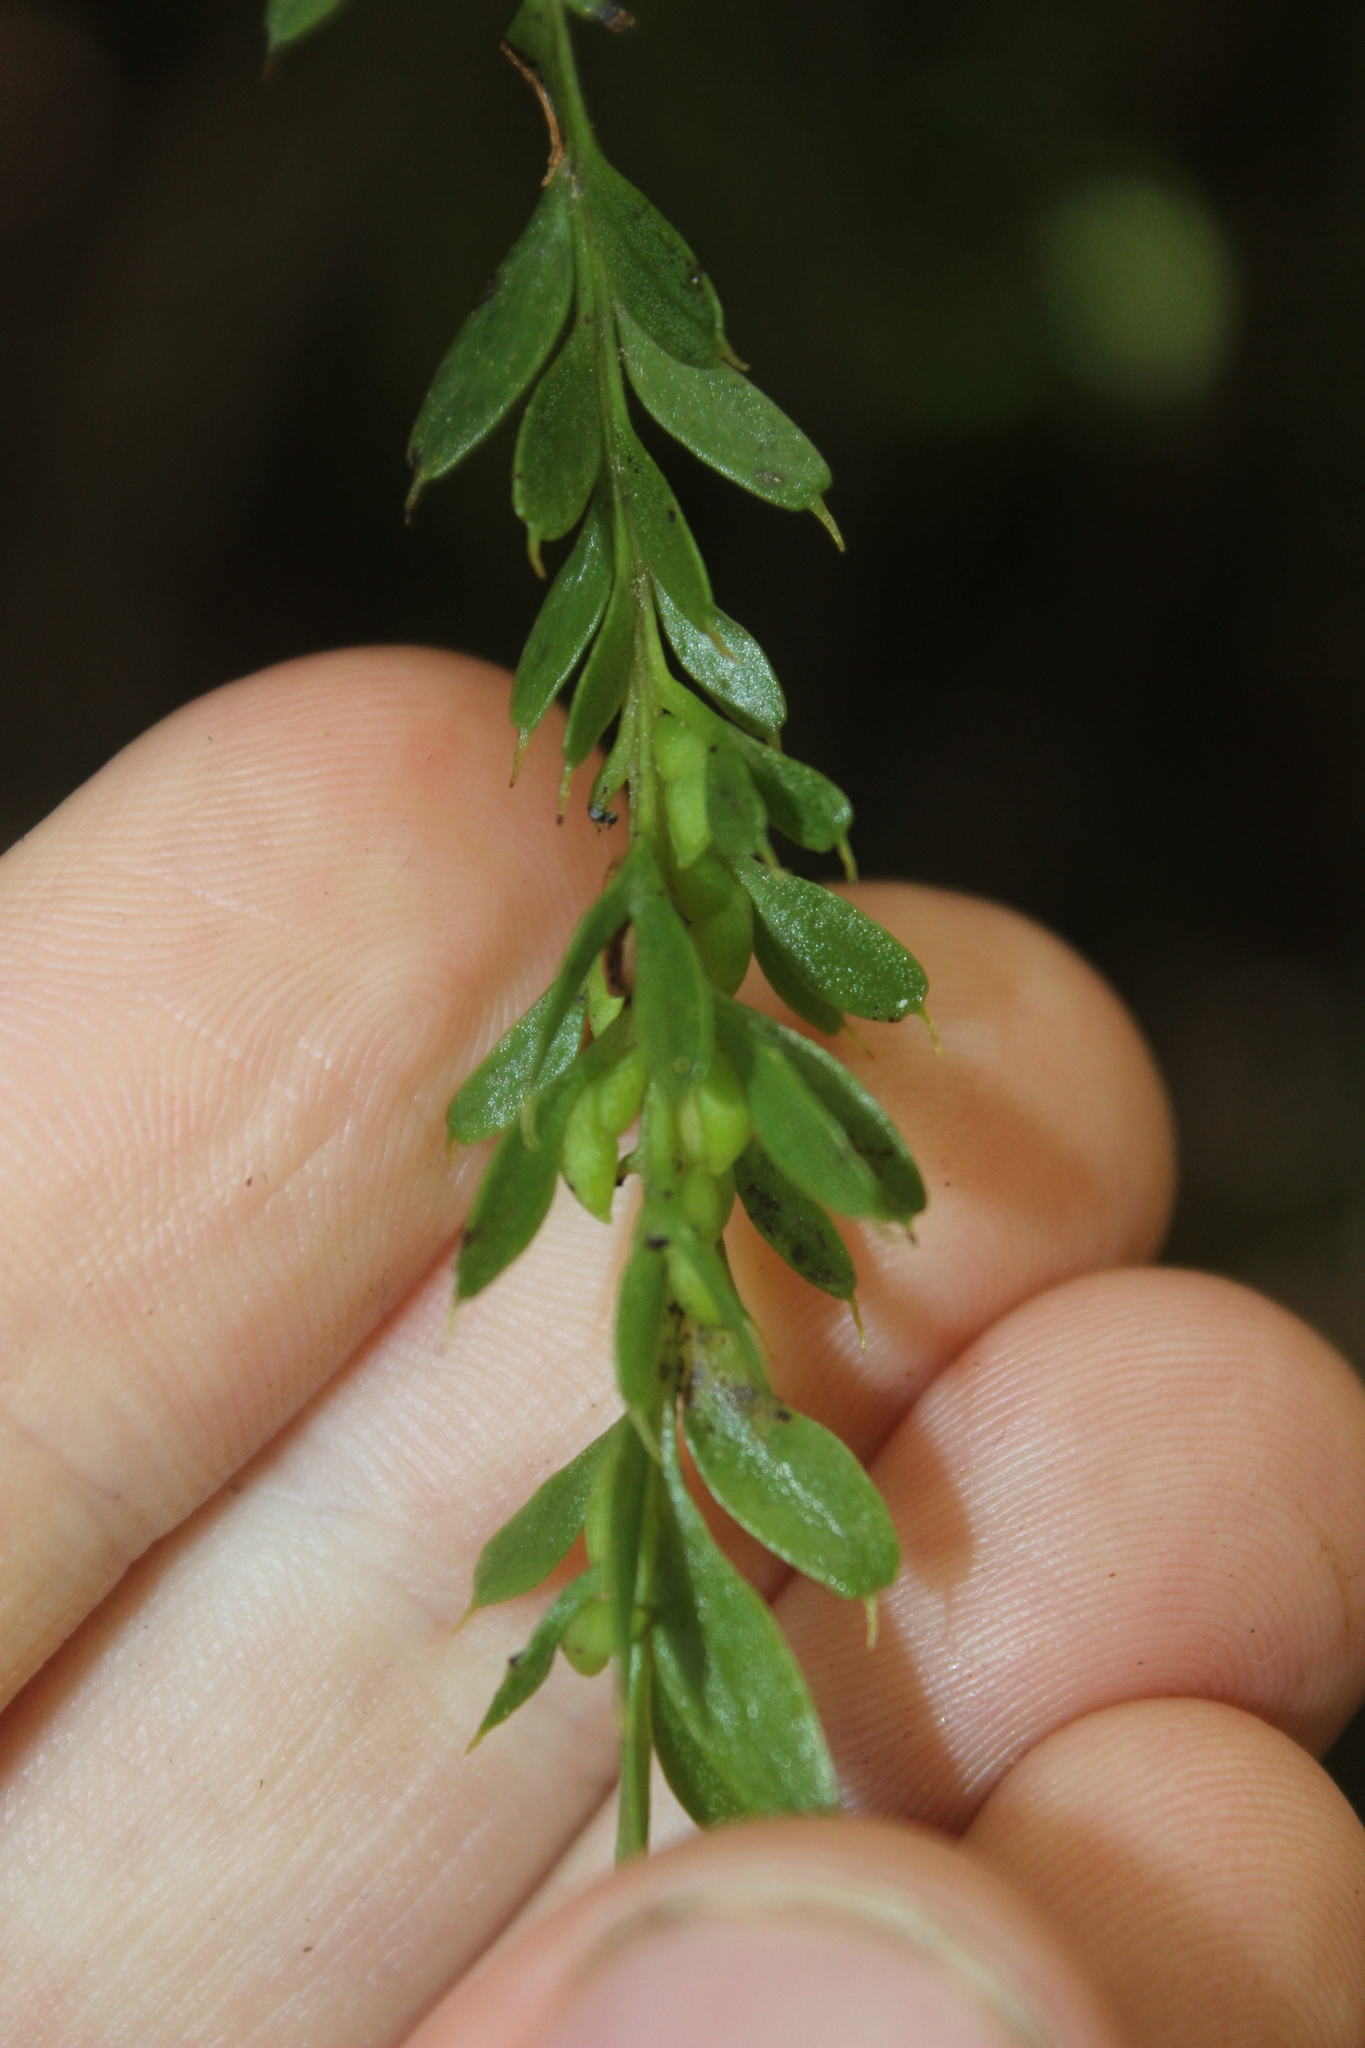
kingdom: Plantae
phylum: Tracheophyta
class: Polypodiopsida
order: Psilotales
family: Psilotaceae
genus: Tmesipteris
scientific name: Tmesipteris tannensis
